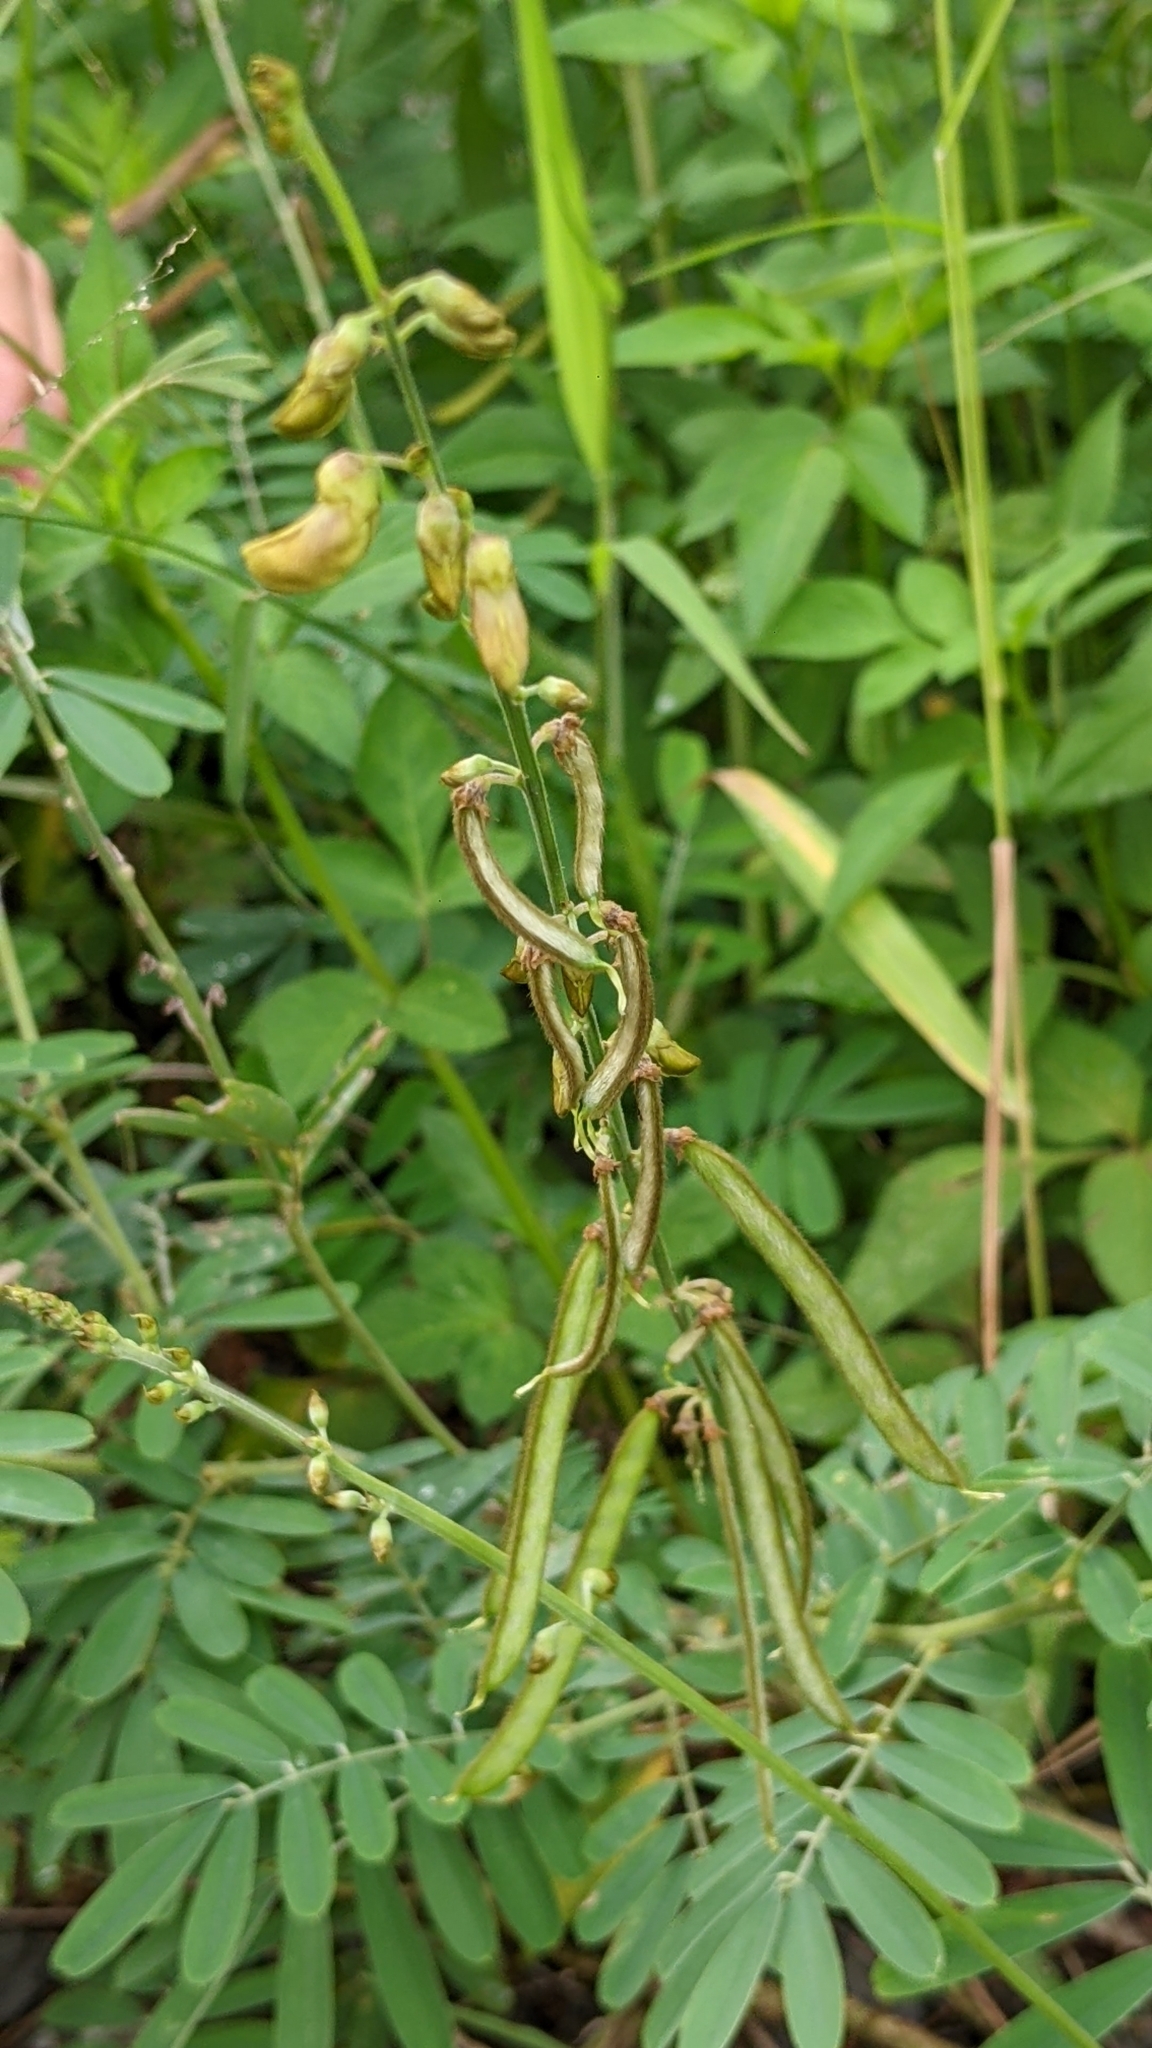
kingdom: Plantae
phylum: Tracheophyta
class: Magnoliopsida
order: Fabales
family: Fabaceae
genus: Tephrosia
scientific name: Tephrosia noctiflora
